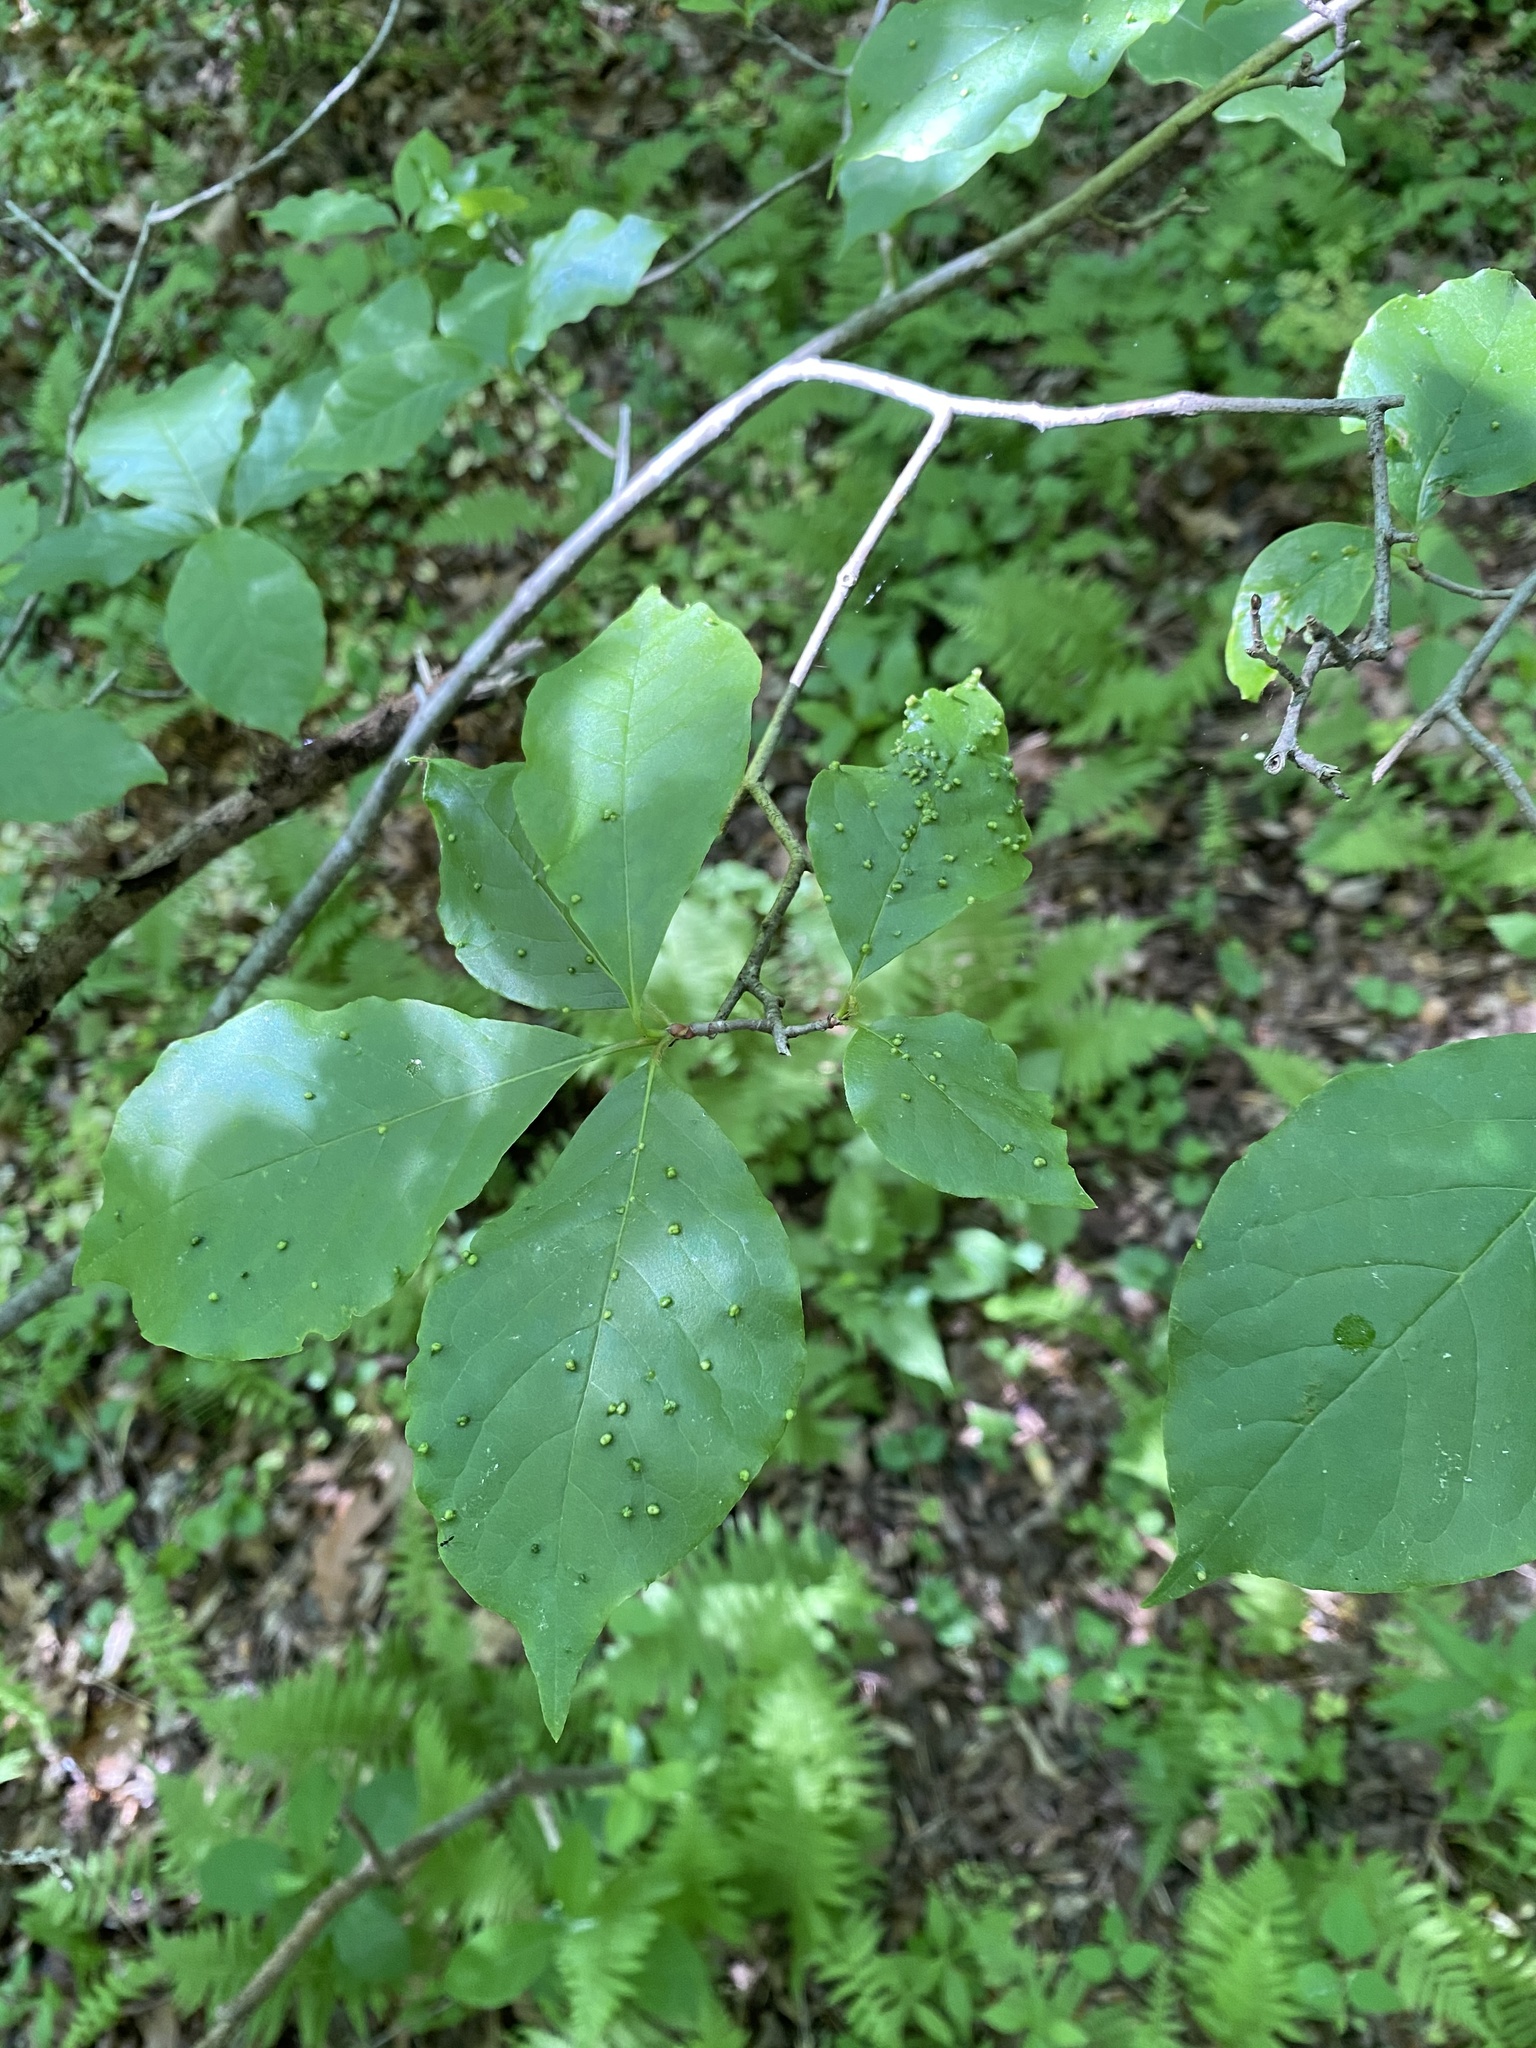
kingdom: Animalia
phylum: Arthropoda
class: Arachnida
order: Trombidiformes
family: Eriophyidae
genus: Aceria
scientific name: Aceria
